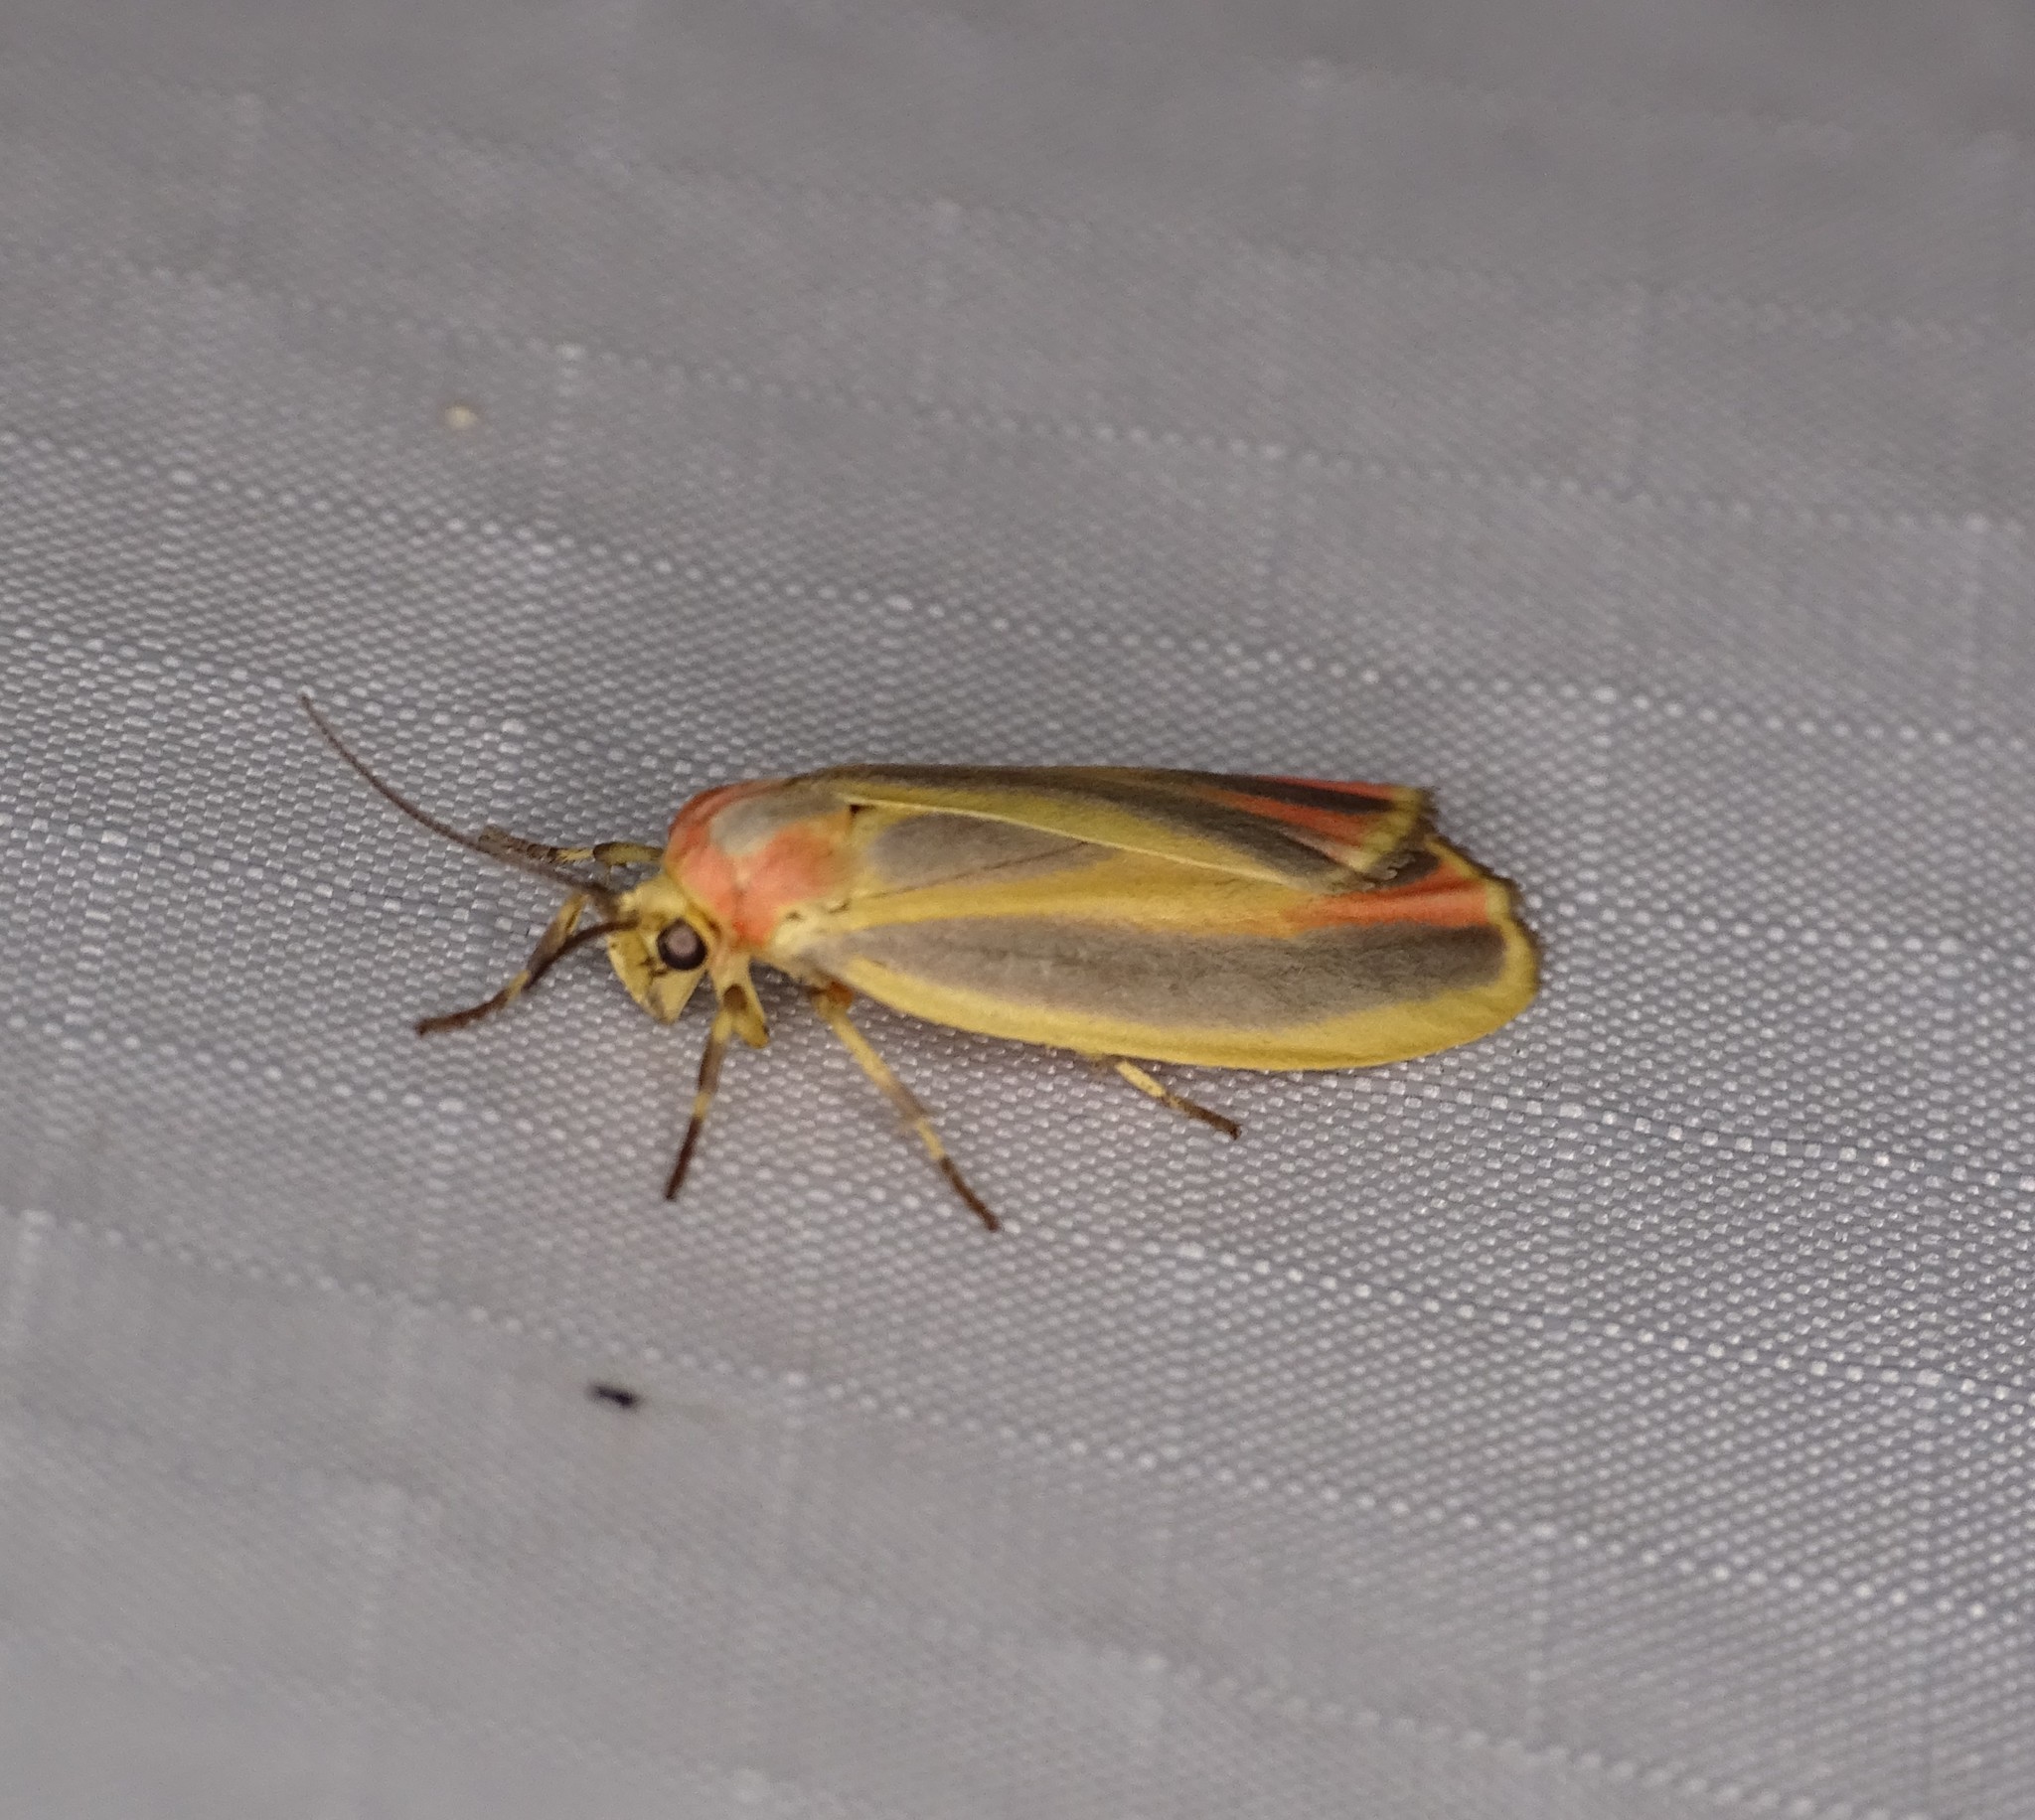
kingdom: Animalia
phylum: Arthropoda
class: Insecta
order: Lepidoptera
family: Erebidae
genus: Hypoprepia
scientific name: Hypoprepia fucosa
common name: Painted lichen moth
